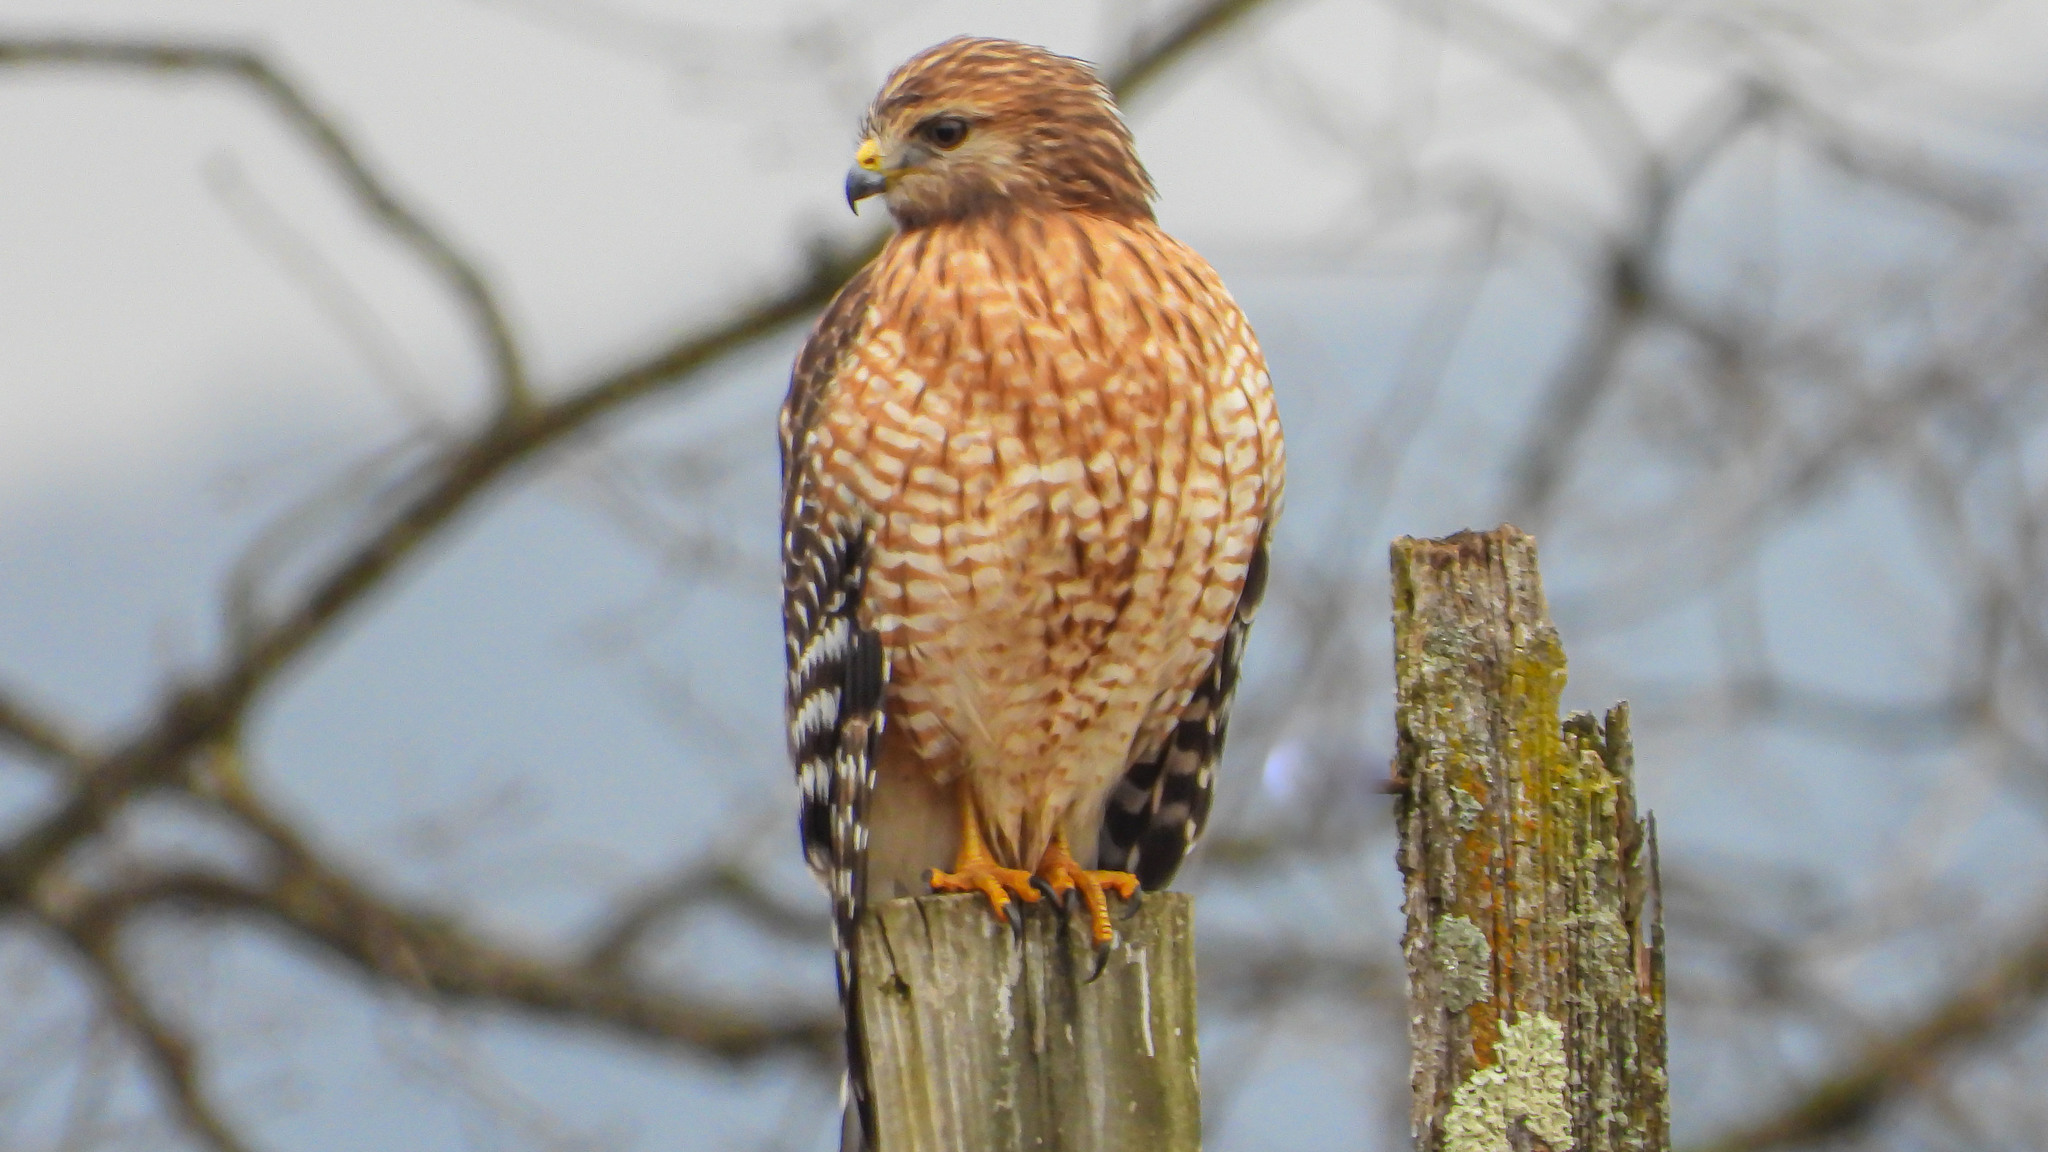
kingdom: Animalia
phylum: Chordata
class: Aves
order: Accipitriformes
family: Accipitridae
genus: Buteo
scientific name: Buteo lineatus
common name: Red-shouldered hawk
